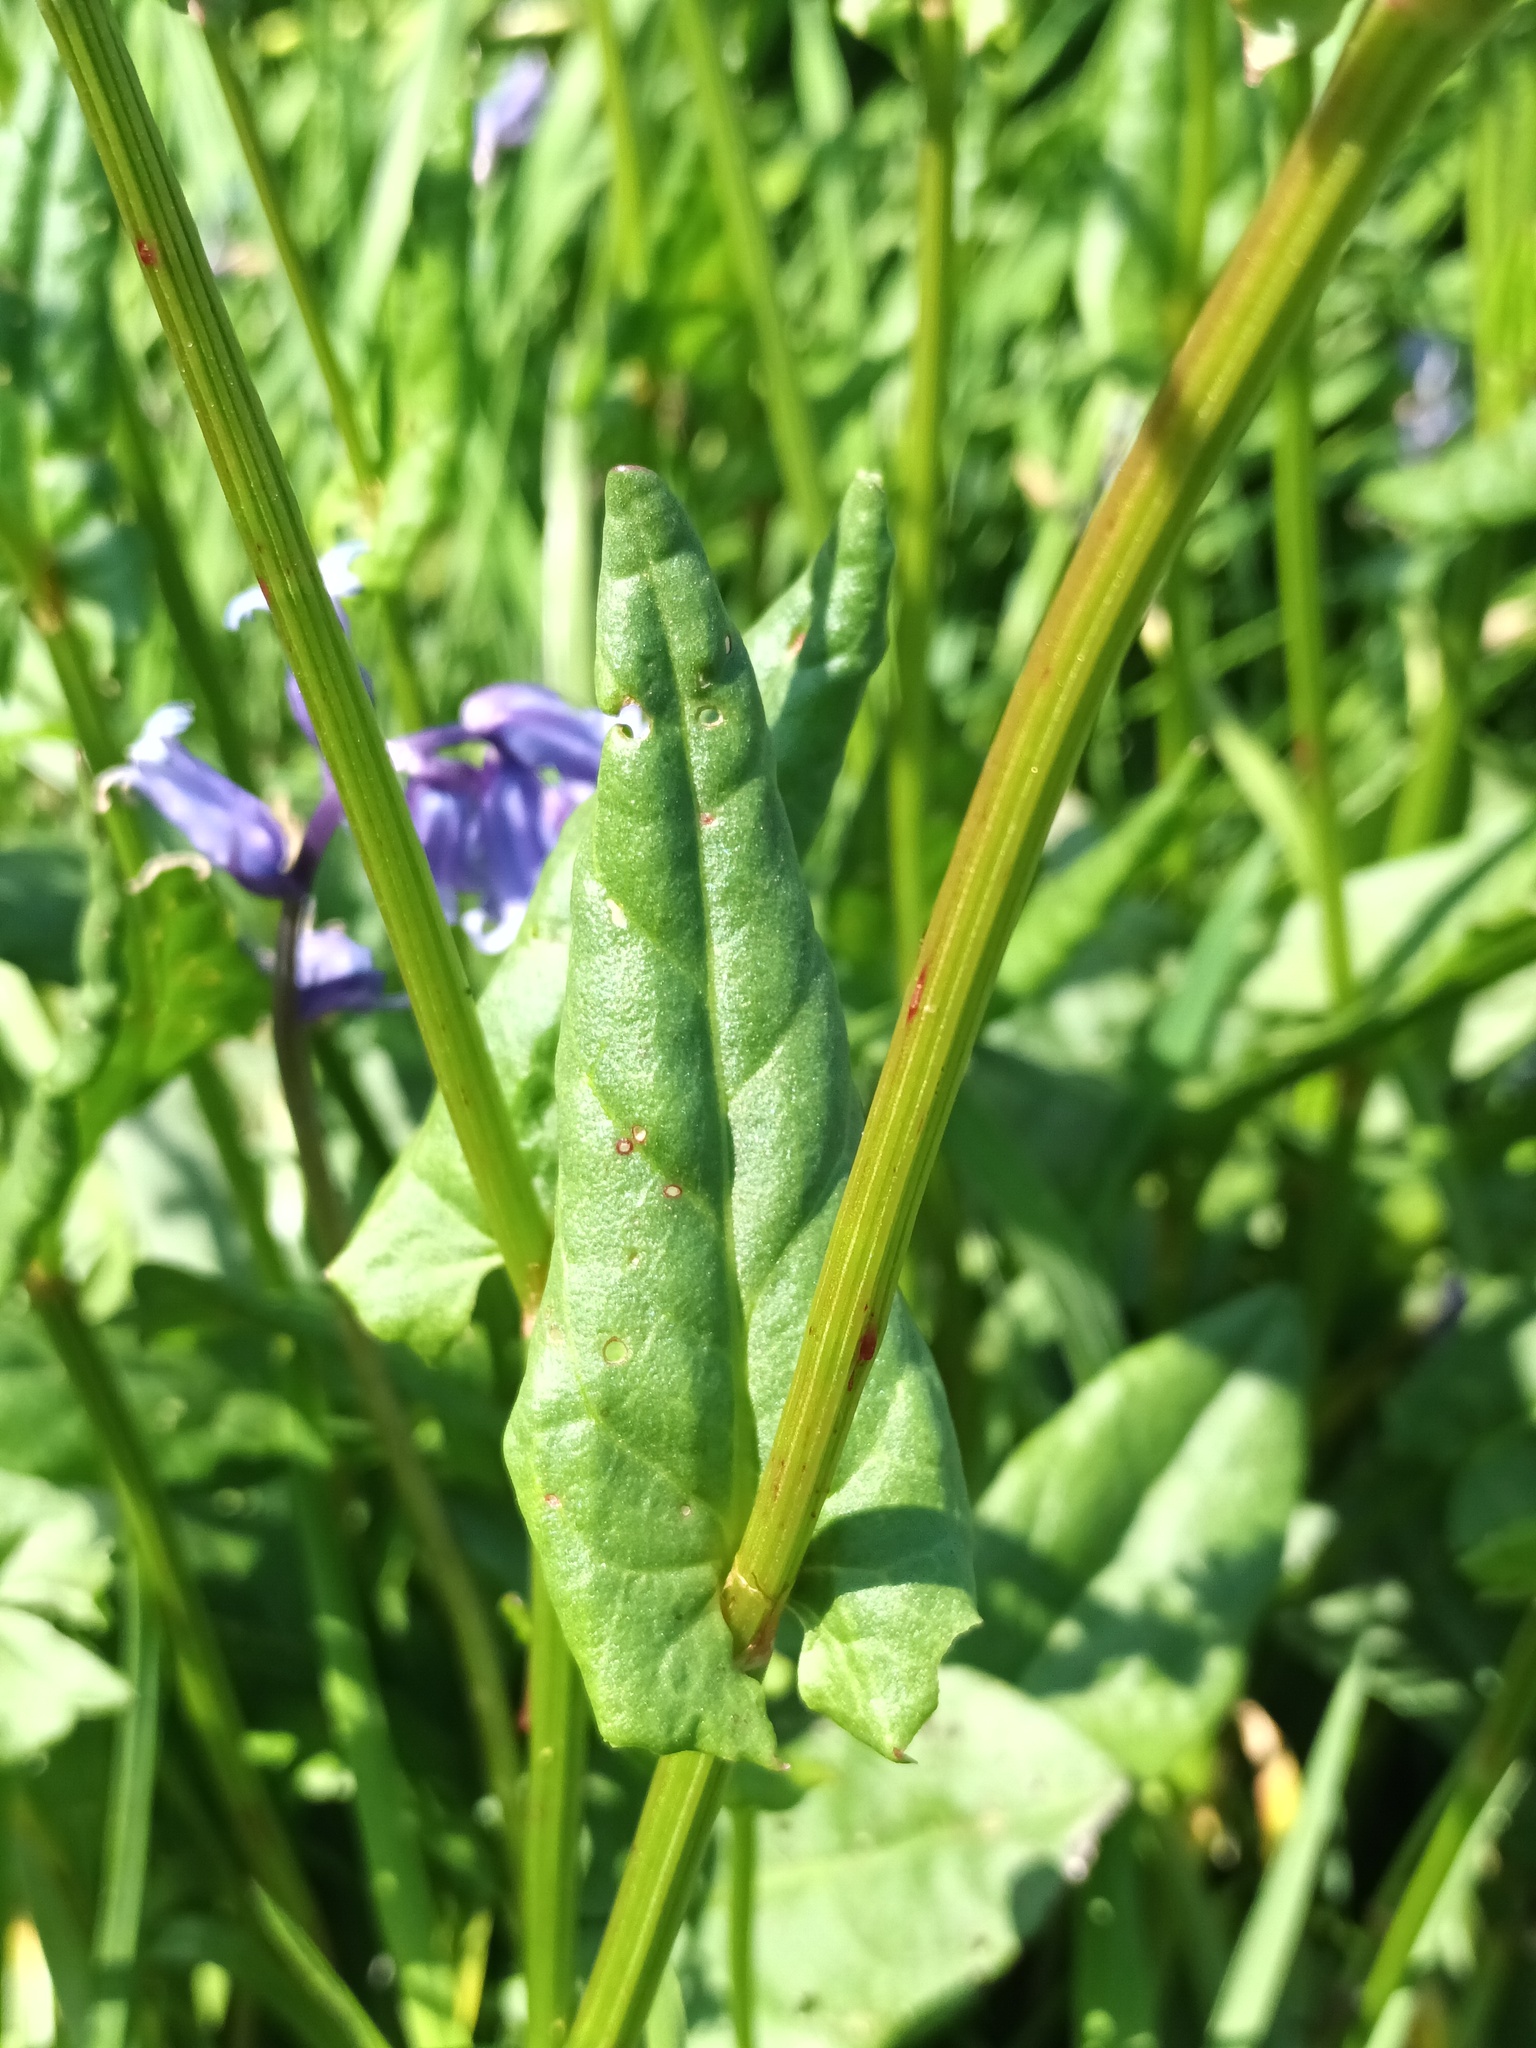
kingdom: Plantae
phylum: Tracheophyta
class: Magnoliopsida
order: Caryophyllales
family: Polygonaceae
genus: Rumex
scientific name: Rumex acetosa
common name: Garden sorrel
